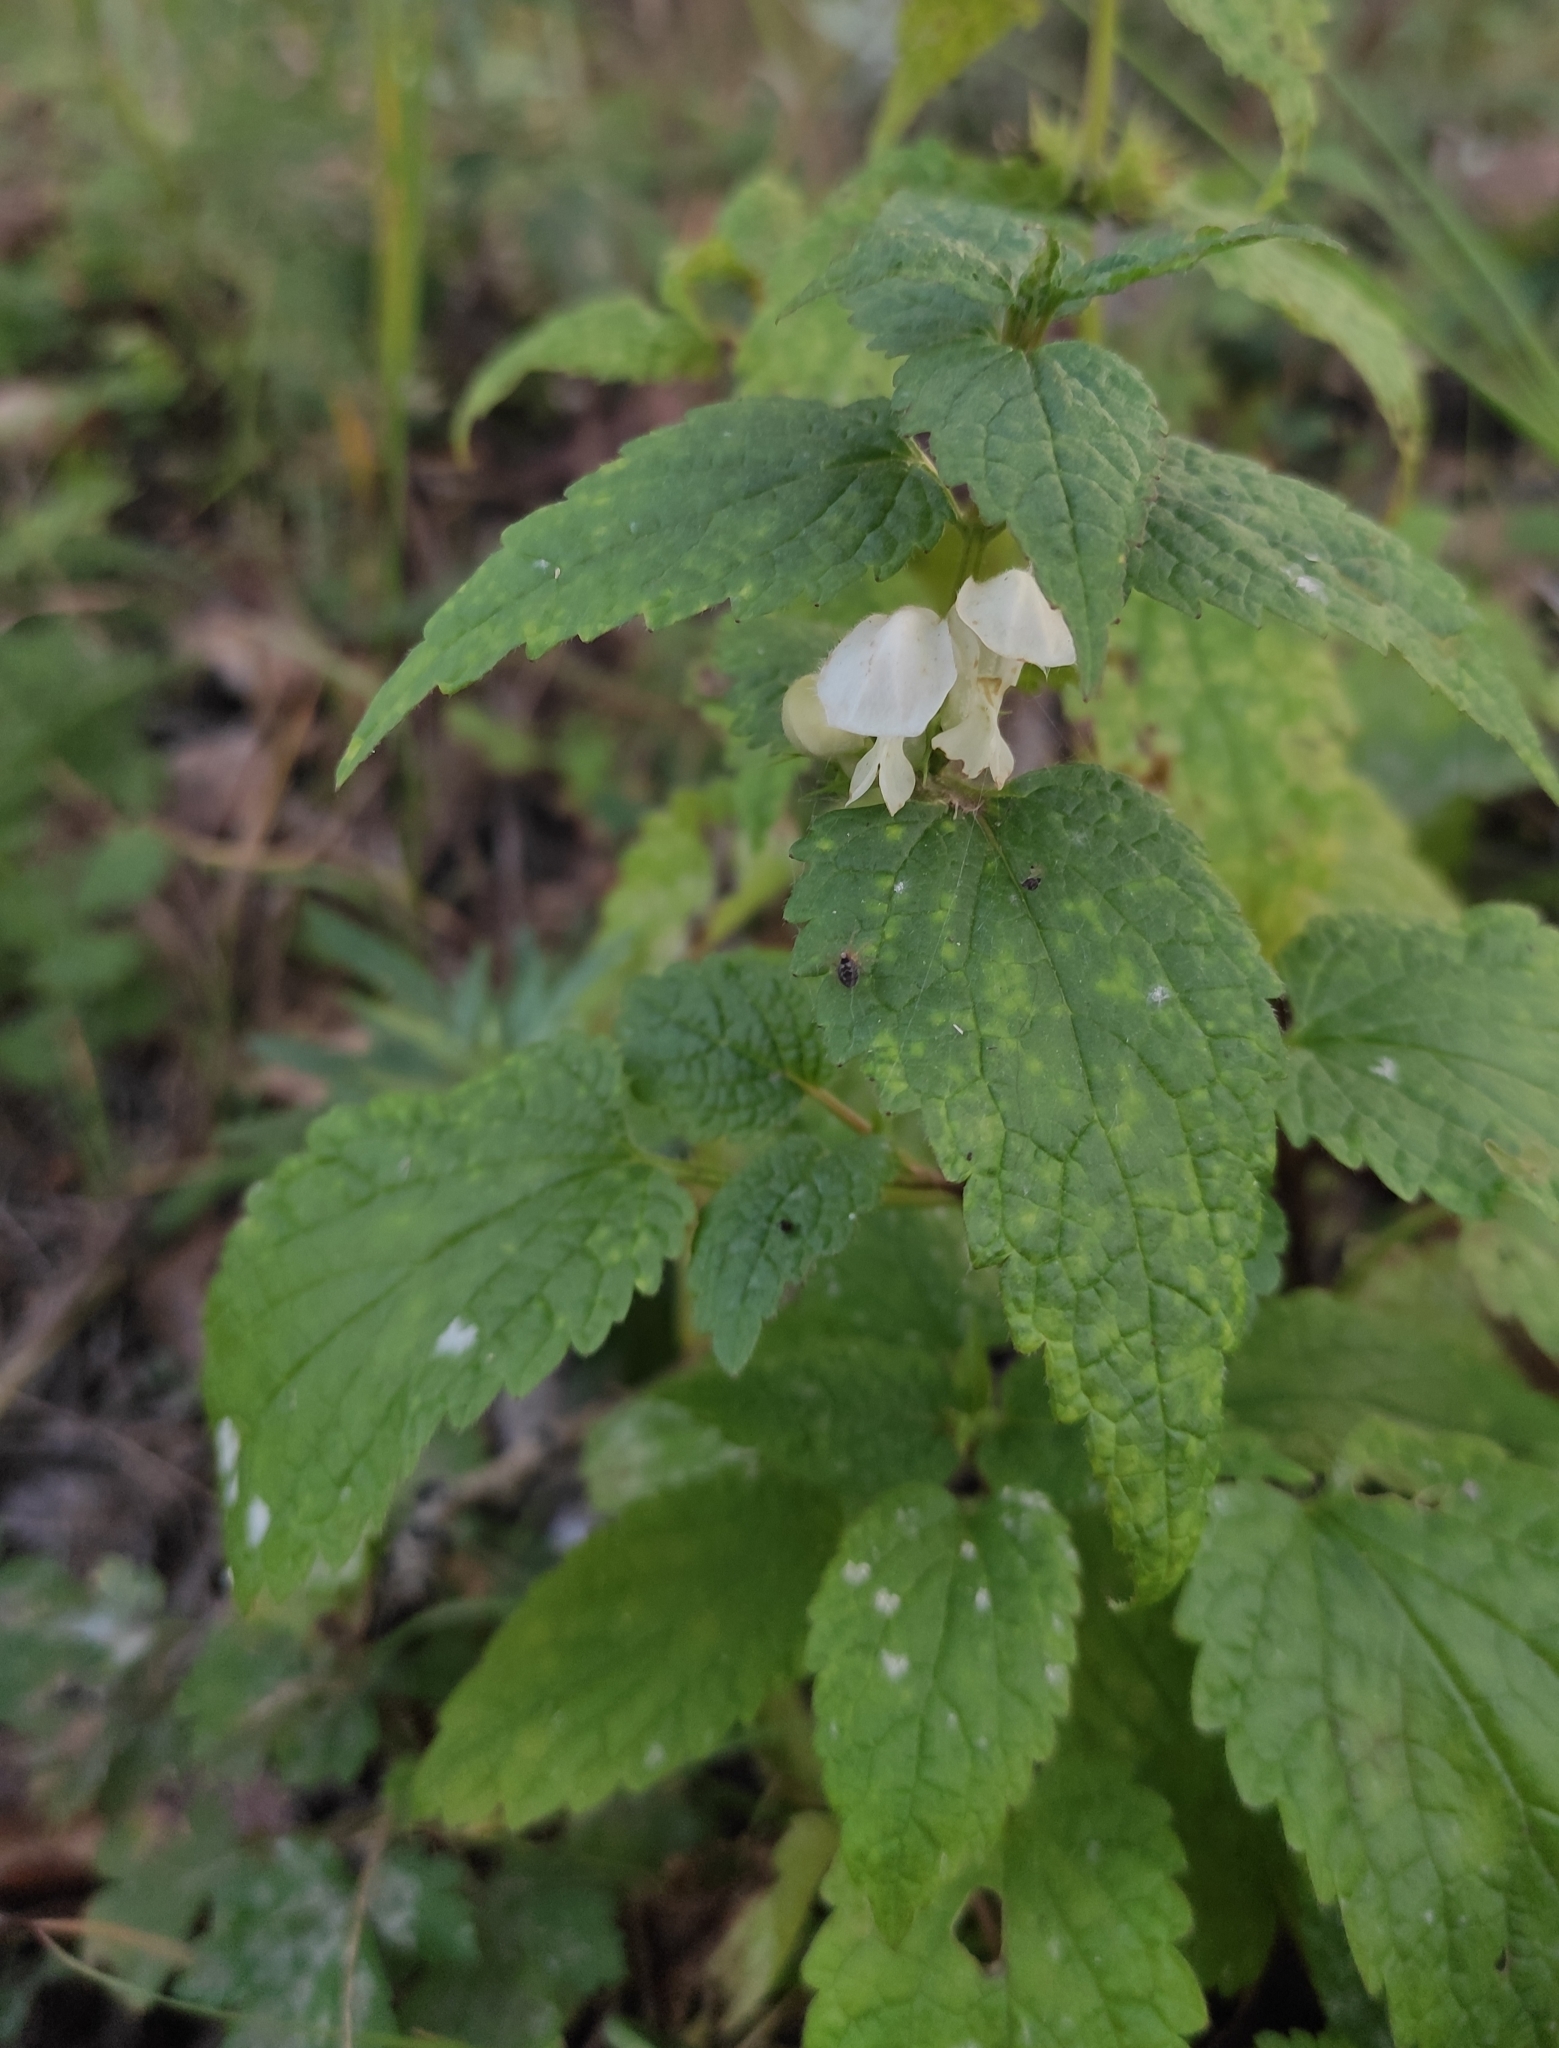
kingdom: Plantae
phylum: Tracheophyta
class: Magnoliopsida
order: Lamiales
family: Lamiaceae
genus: Lamium
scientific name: Lamium album
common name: White dead-nettle
